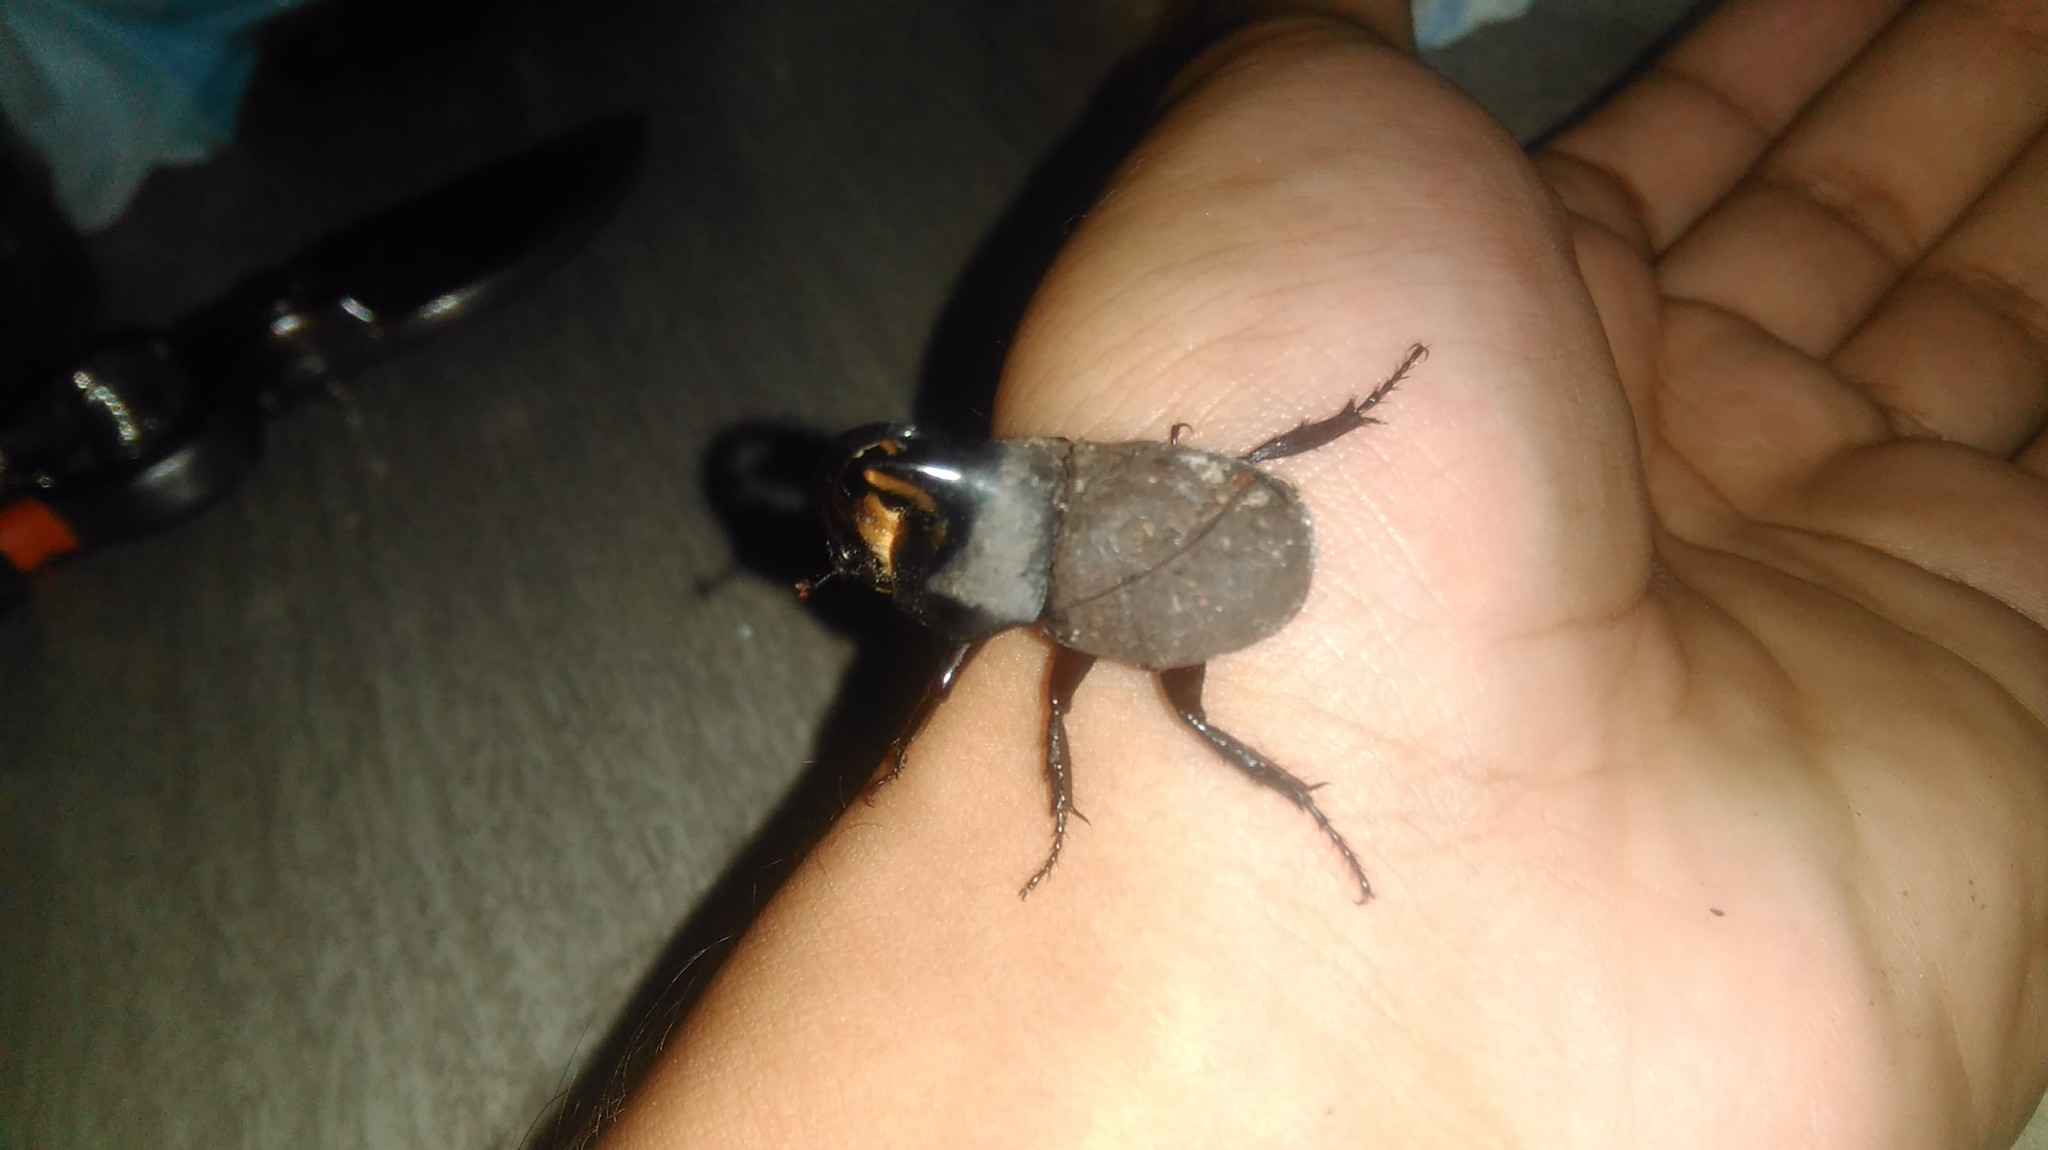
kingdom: Animalia
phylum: Arthropoda
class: Insecta
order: Coleoptera
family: Scarabaeidae
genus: Diloboderus
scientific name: Diloboderus abderus
